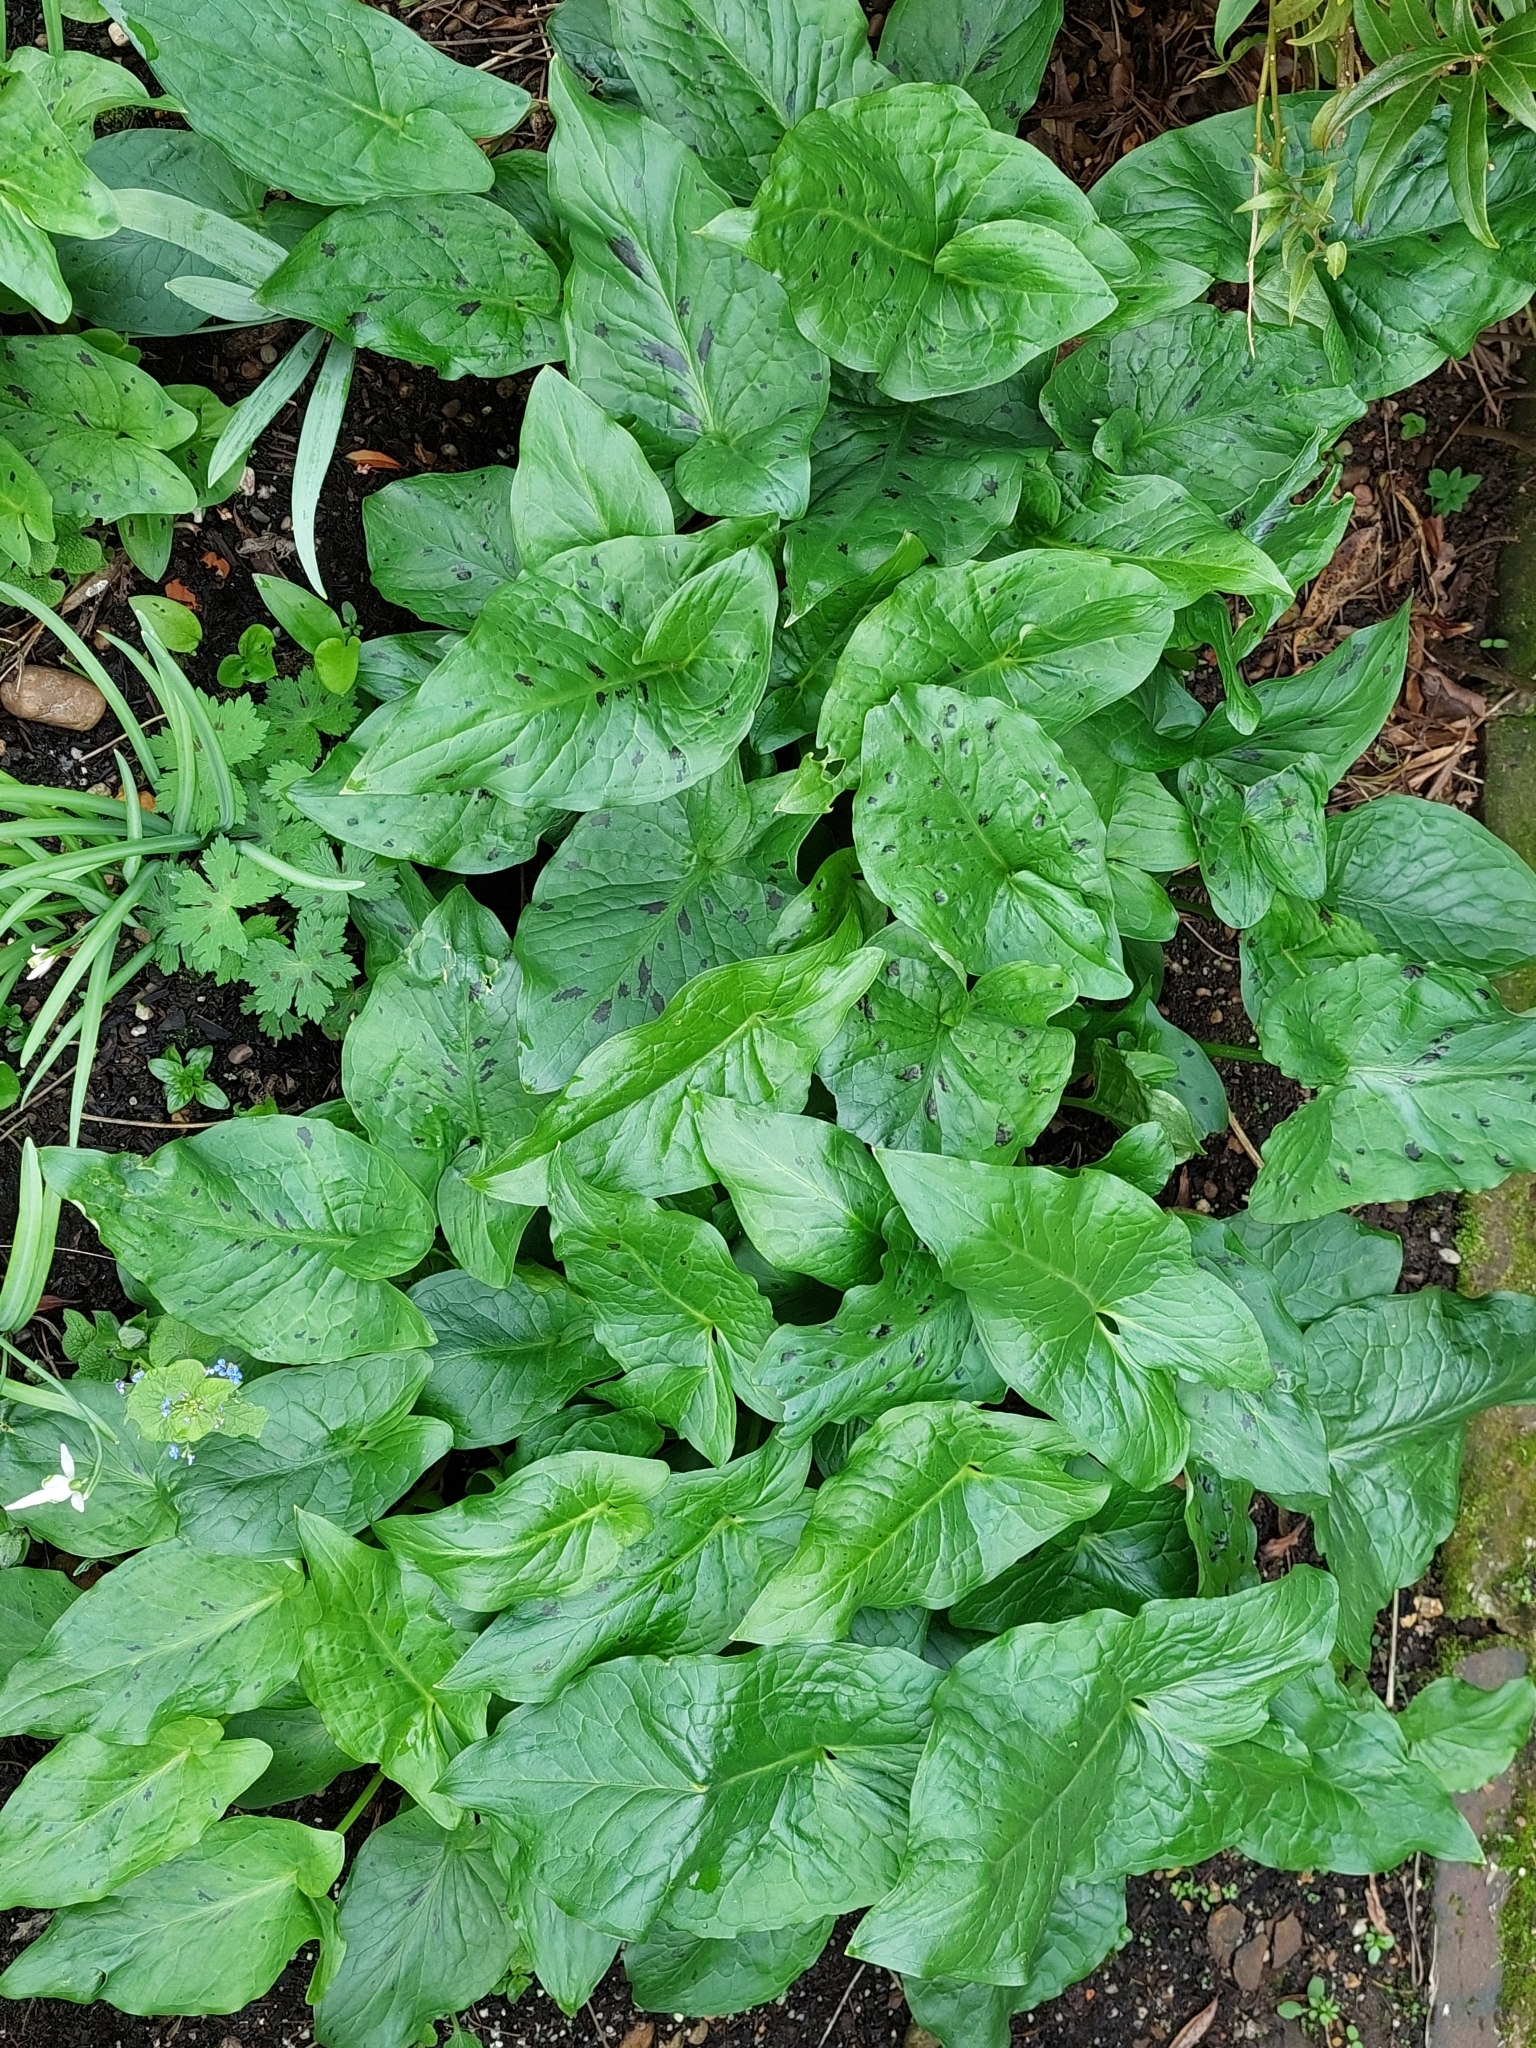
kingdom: Plantae
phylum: Tracheophyta
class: Liliopsida
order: Alismatales
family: Araceae
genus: Arum
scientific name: Arum maculatum
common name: Lords-and-ladies
